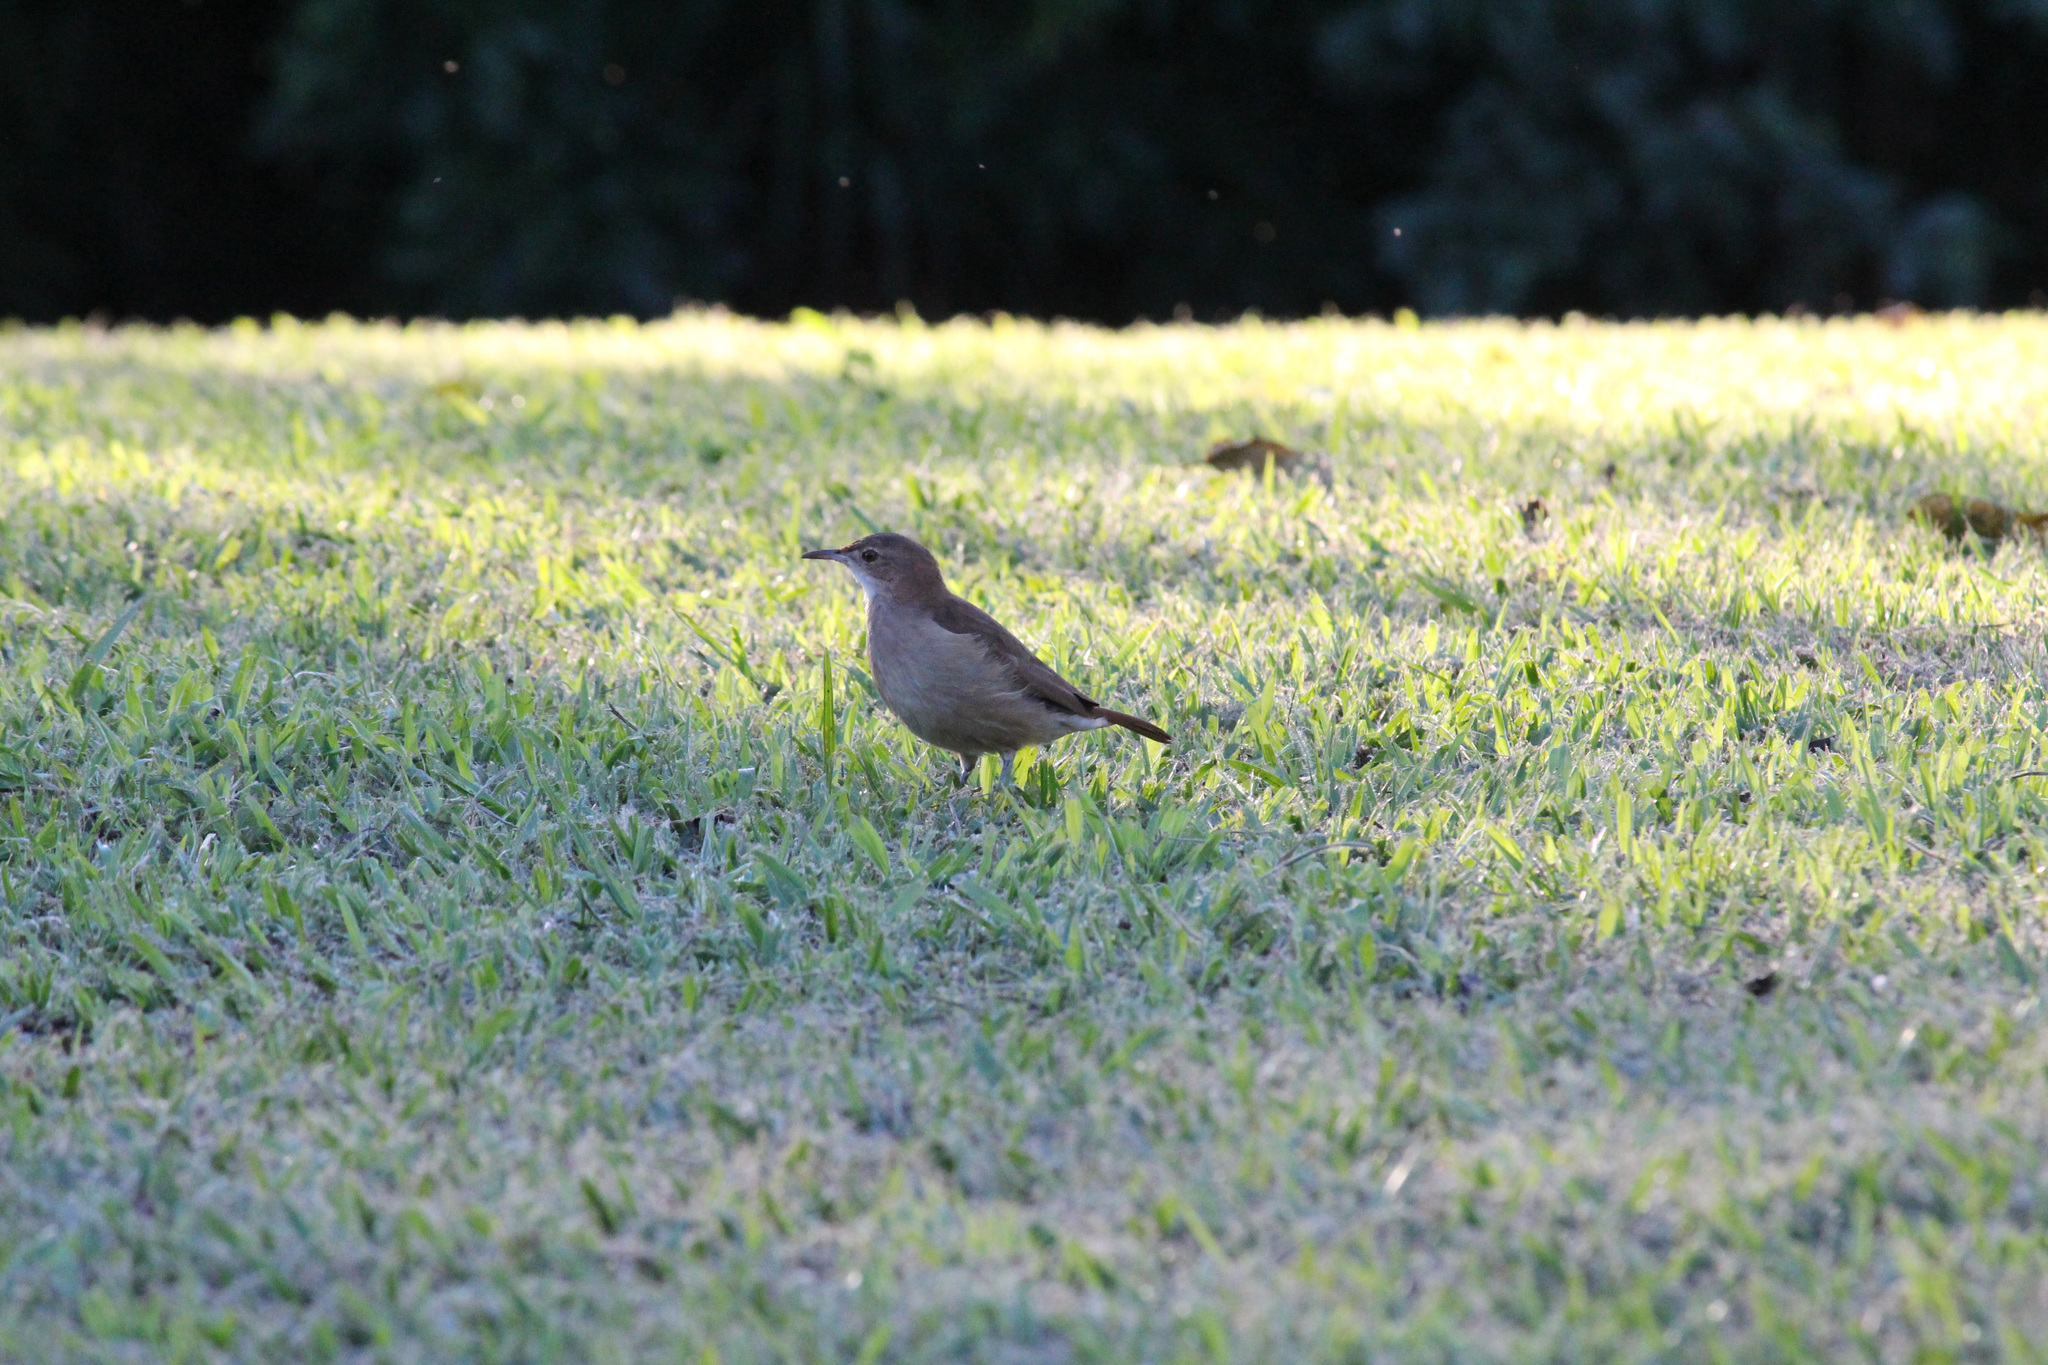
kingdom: Animalia
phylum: Chordata
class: Aves
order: Passeriformes
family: Furnariidae
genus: Furnarius
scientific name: Furnarius rufus
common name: Rufous hornero
